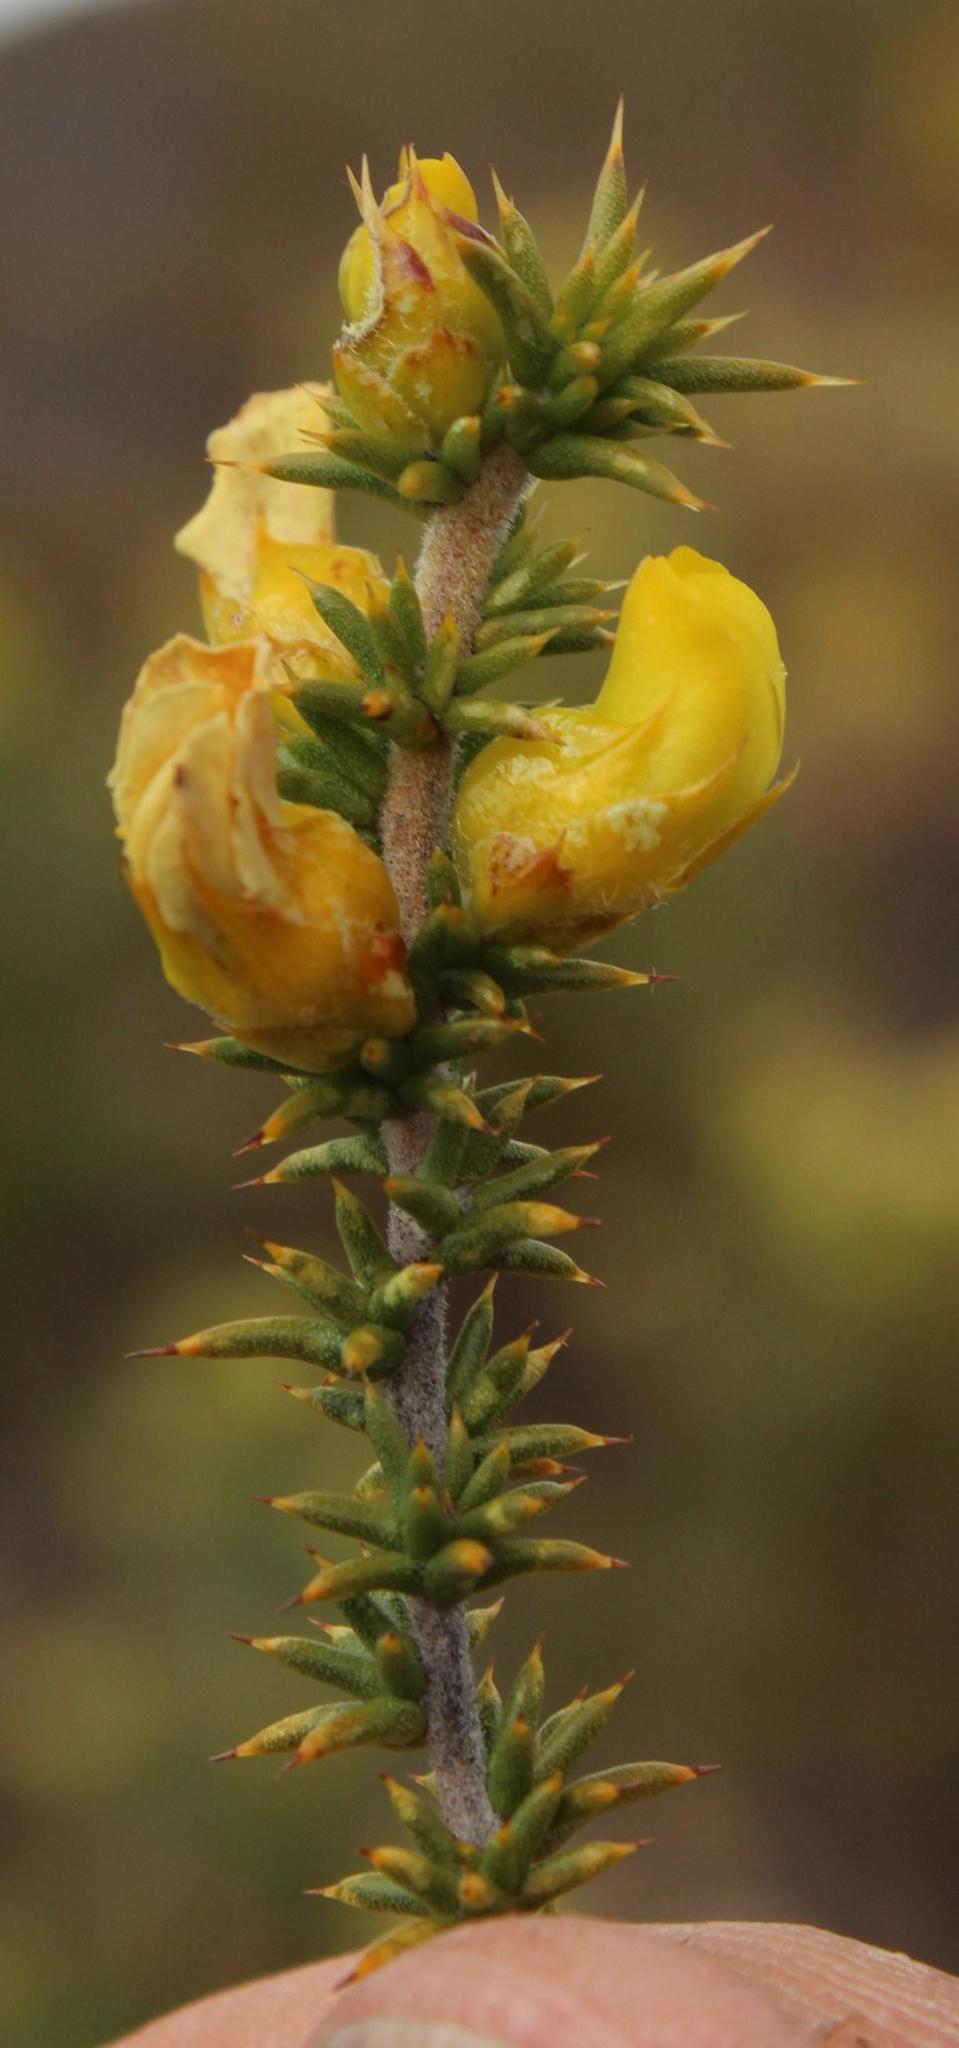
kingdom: Plantae
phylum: Tracheophyta
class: Magnoliopsida
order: Fabales
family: Fabaceae
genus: Aspalathus
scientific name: Aspalathus aciphylla
